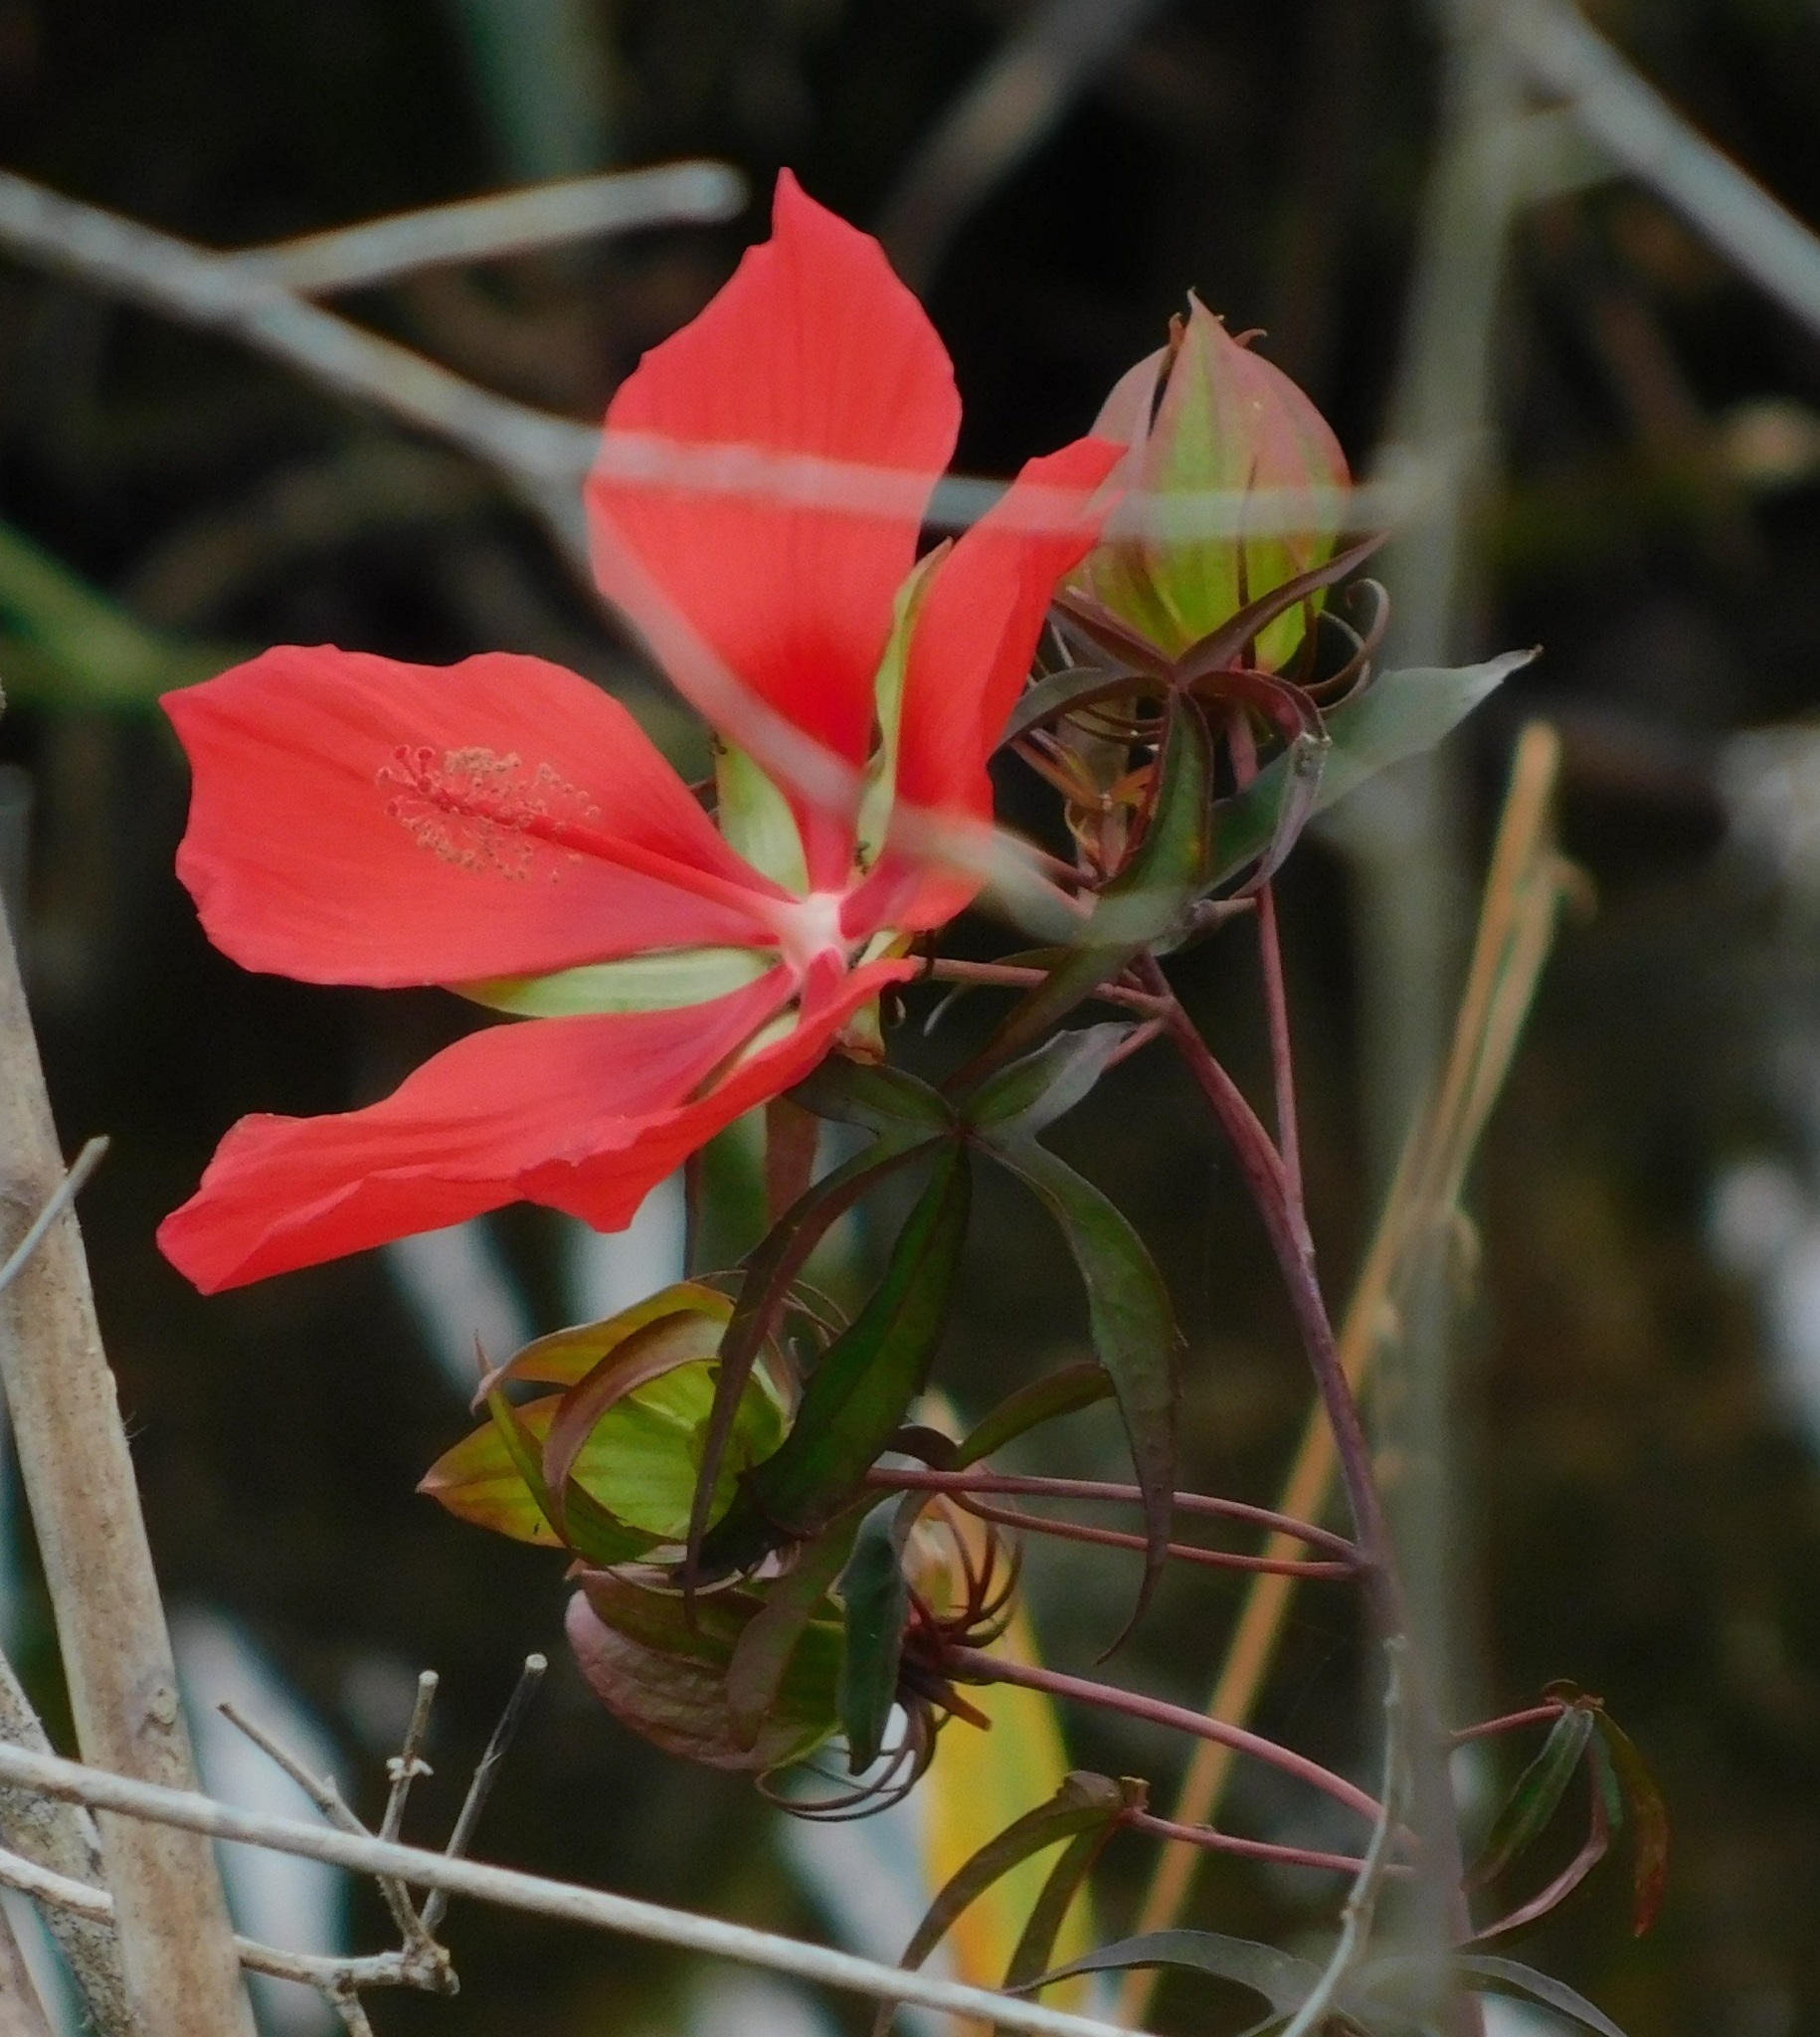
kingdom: Plantae
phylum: Tracheophyta
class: Magnoliopsida
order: Malvales
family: Malvaceae
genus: Hibiscus
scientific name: Hibiscus coccineus
